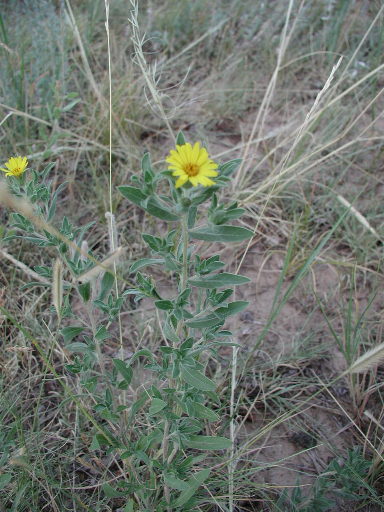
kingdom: Plantae
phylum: Tracheophyta
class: Magnoliopsida
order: Asterales
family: Asteraceae
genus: Heterotheca
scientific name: Heterotheca villosa
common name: Hairy false goldenaster
